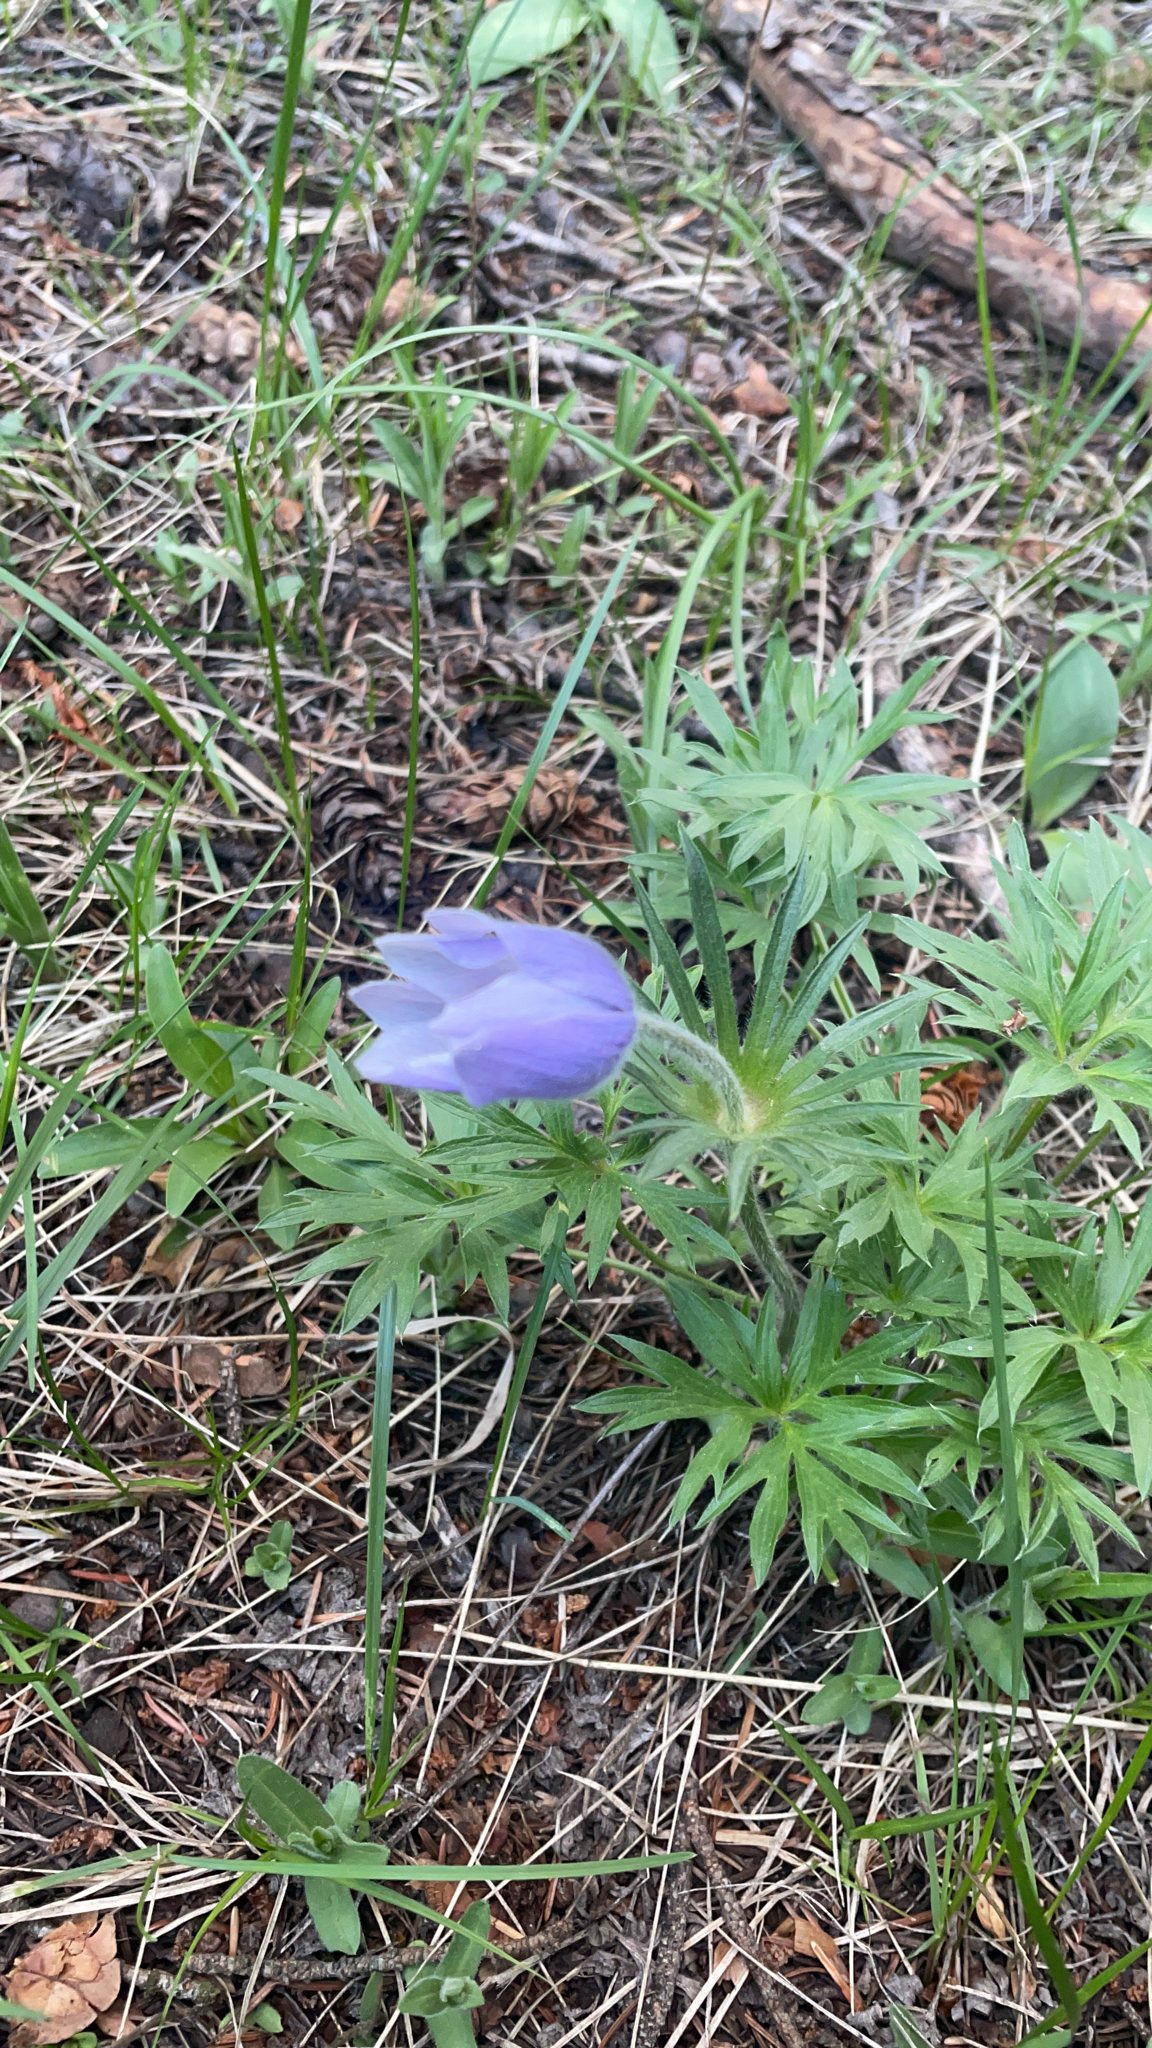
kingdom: Plantae
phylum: Tracheophyta
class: Magnoliopsida
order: Ranunculales
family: Ranunculaceae
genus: Pulsatilla
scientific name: Pulsatilla nuttalliana
